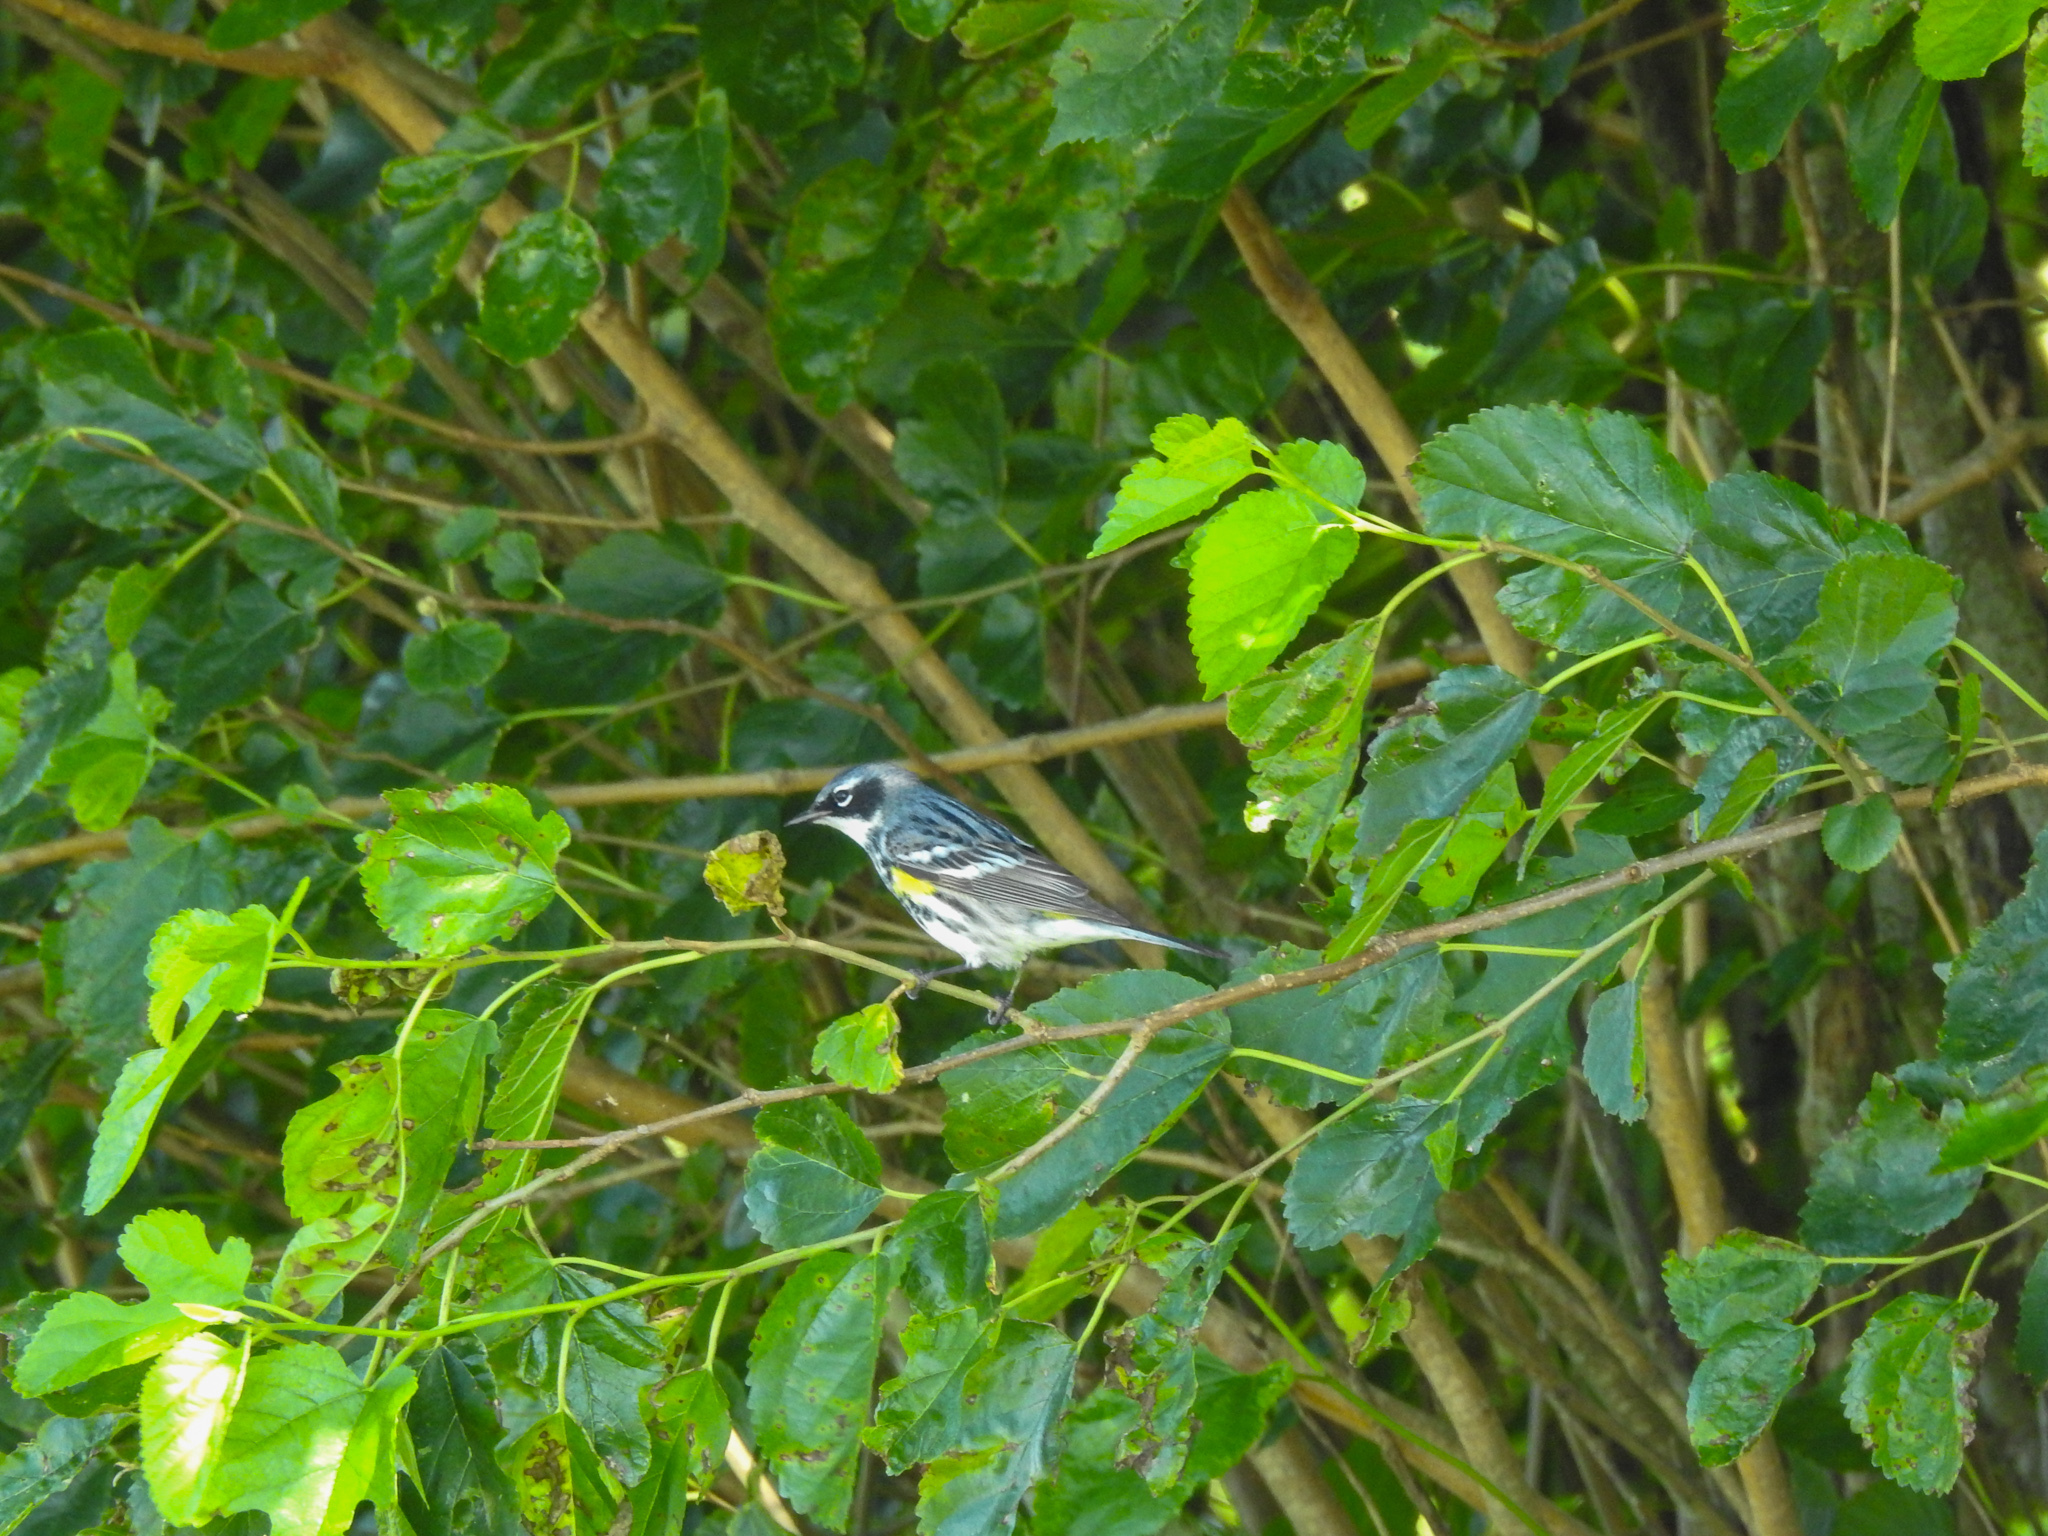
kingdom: Animalia
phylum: Chordata
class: Aves
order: Passeriformes
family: Parulidae
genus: Setophaga
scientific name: Setophaga coronata
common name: Myrtle warbler
